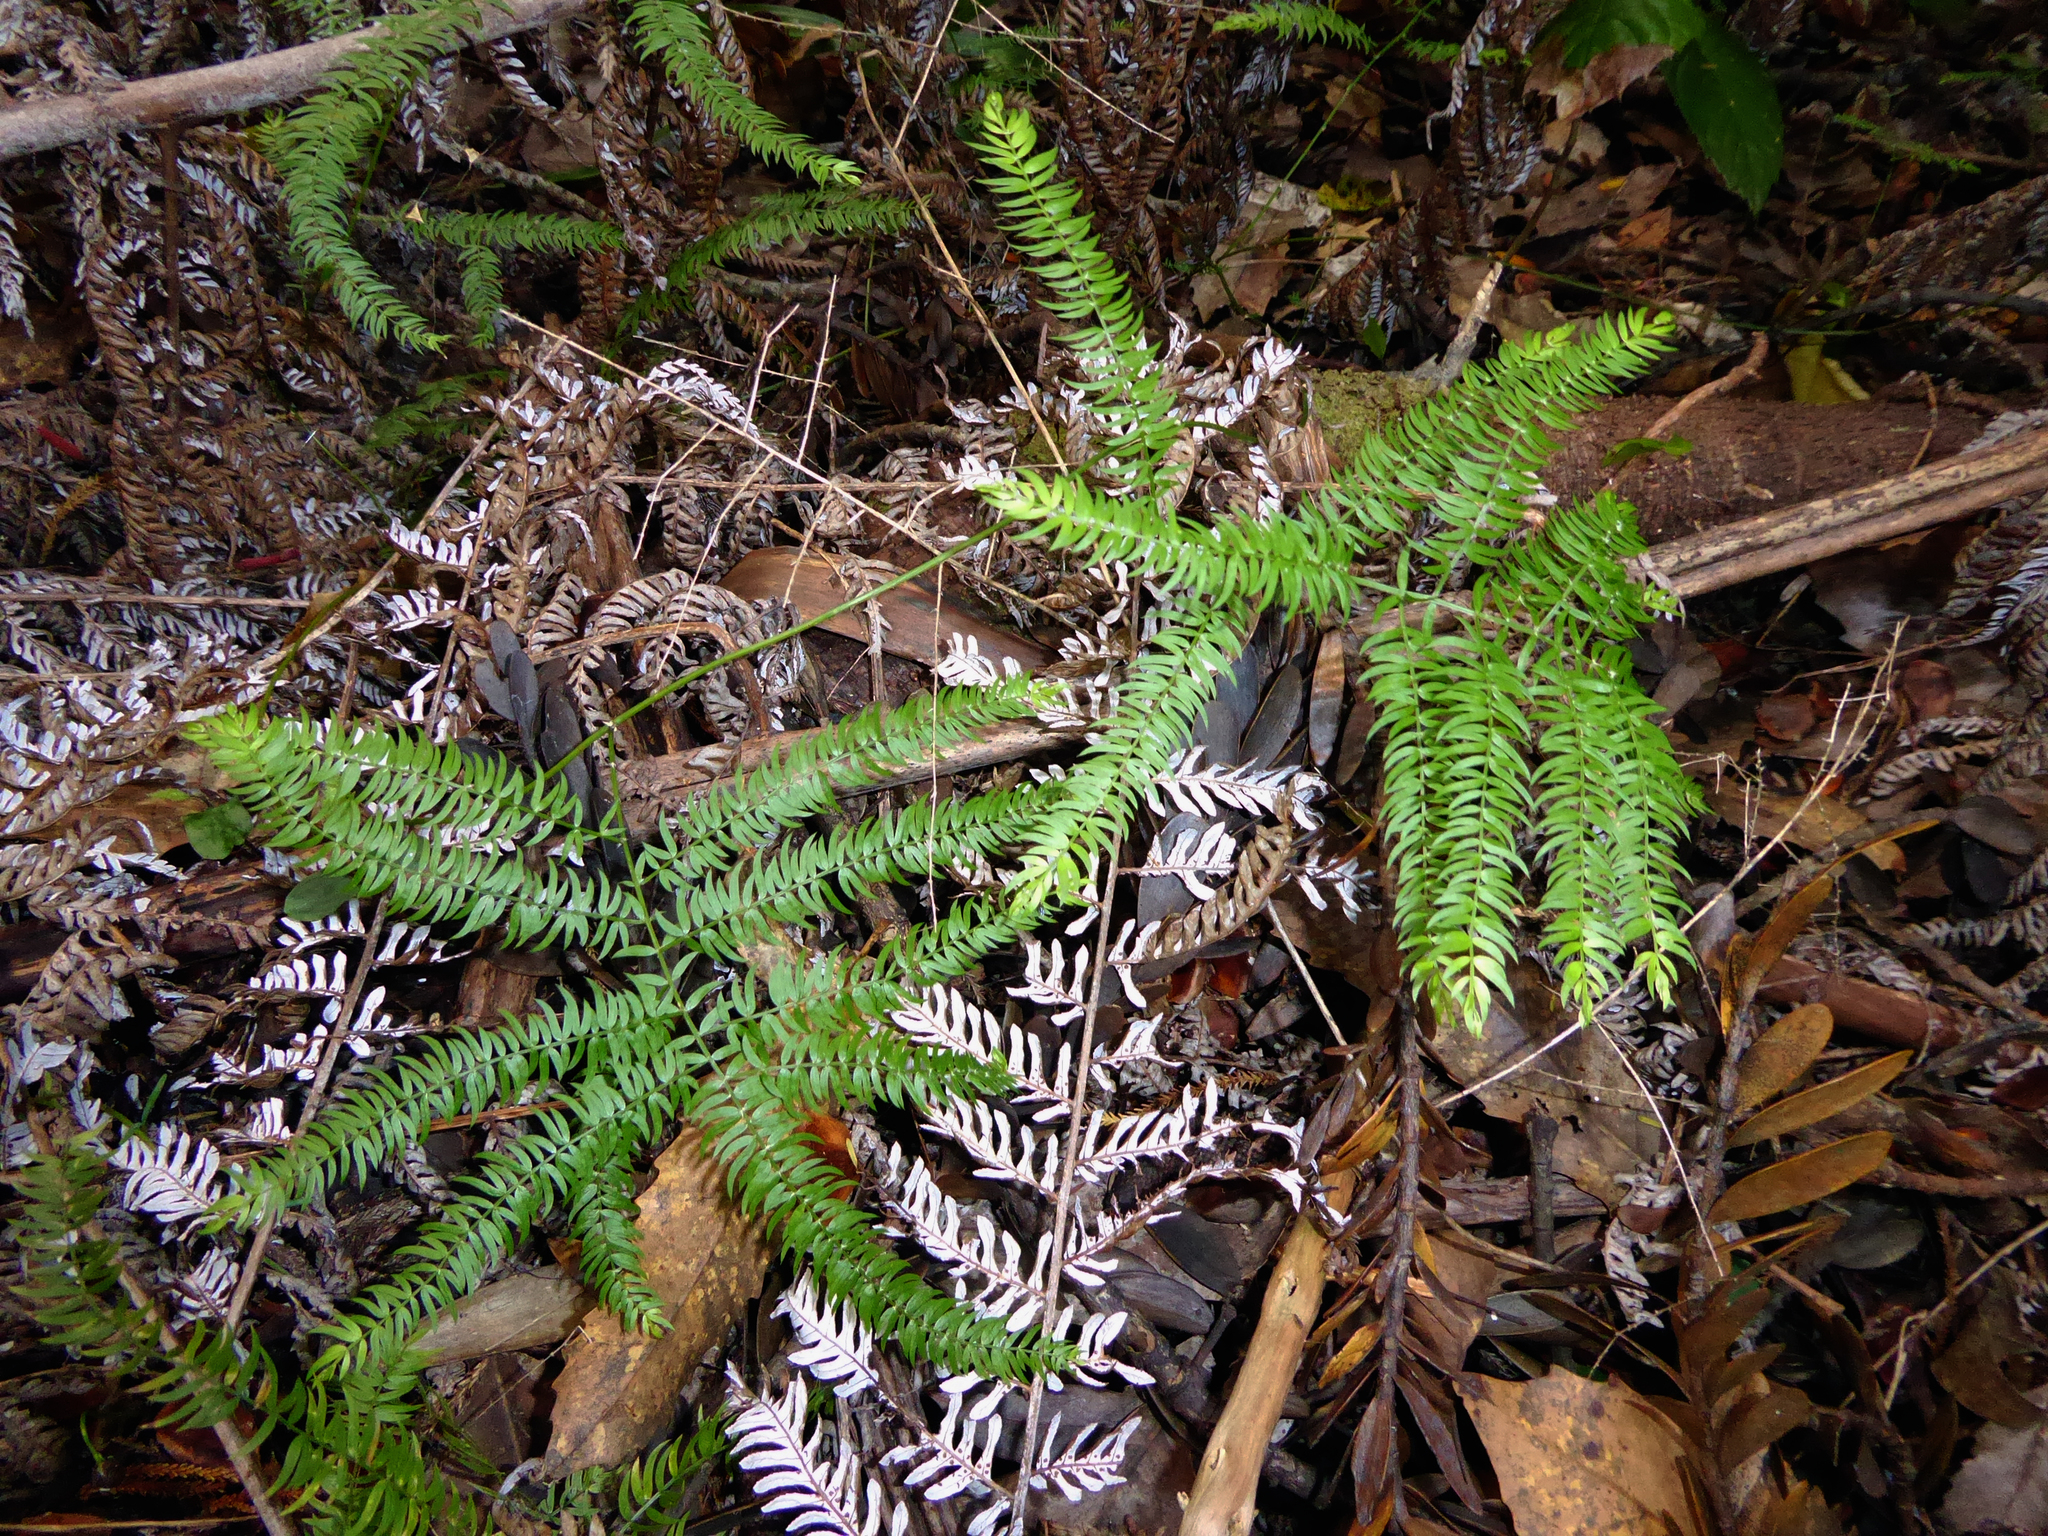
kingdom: Plantae
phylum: Tracheophyta
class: Liliopsida
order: Asparagales
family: Asparagaceae
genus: Asparagus
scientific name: Asparagus scandens
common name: Asparagus-fern
